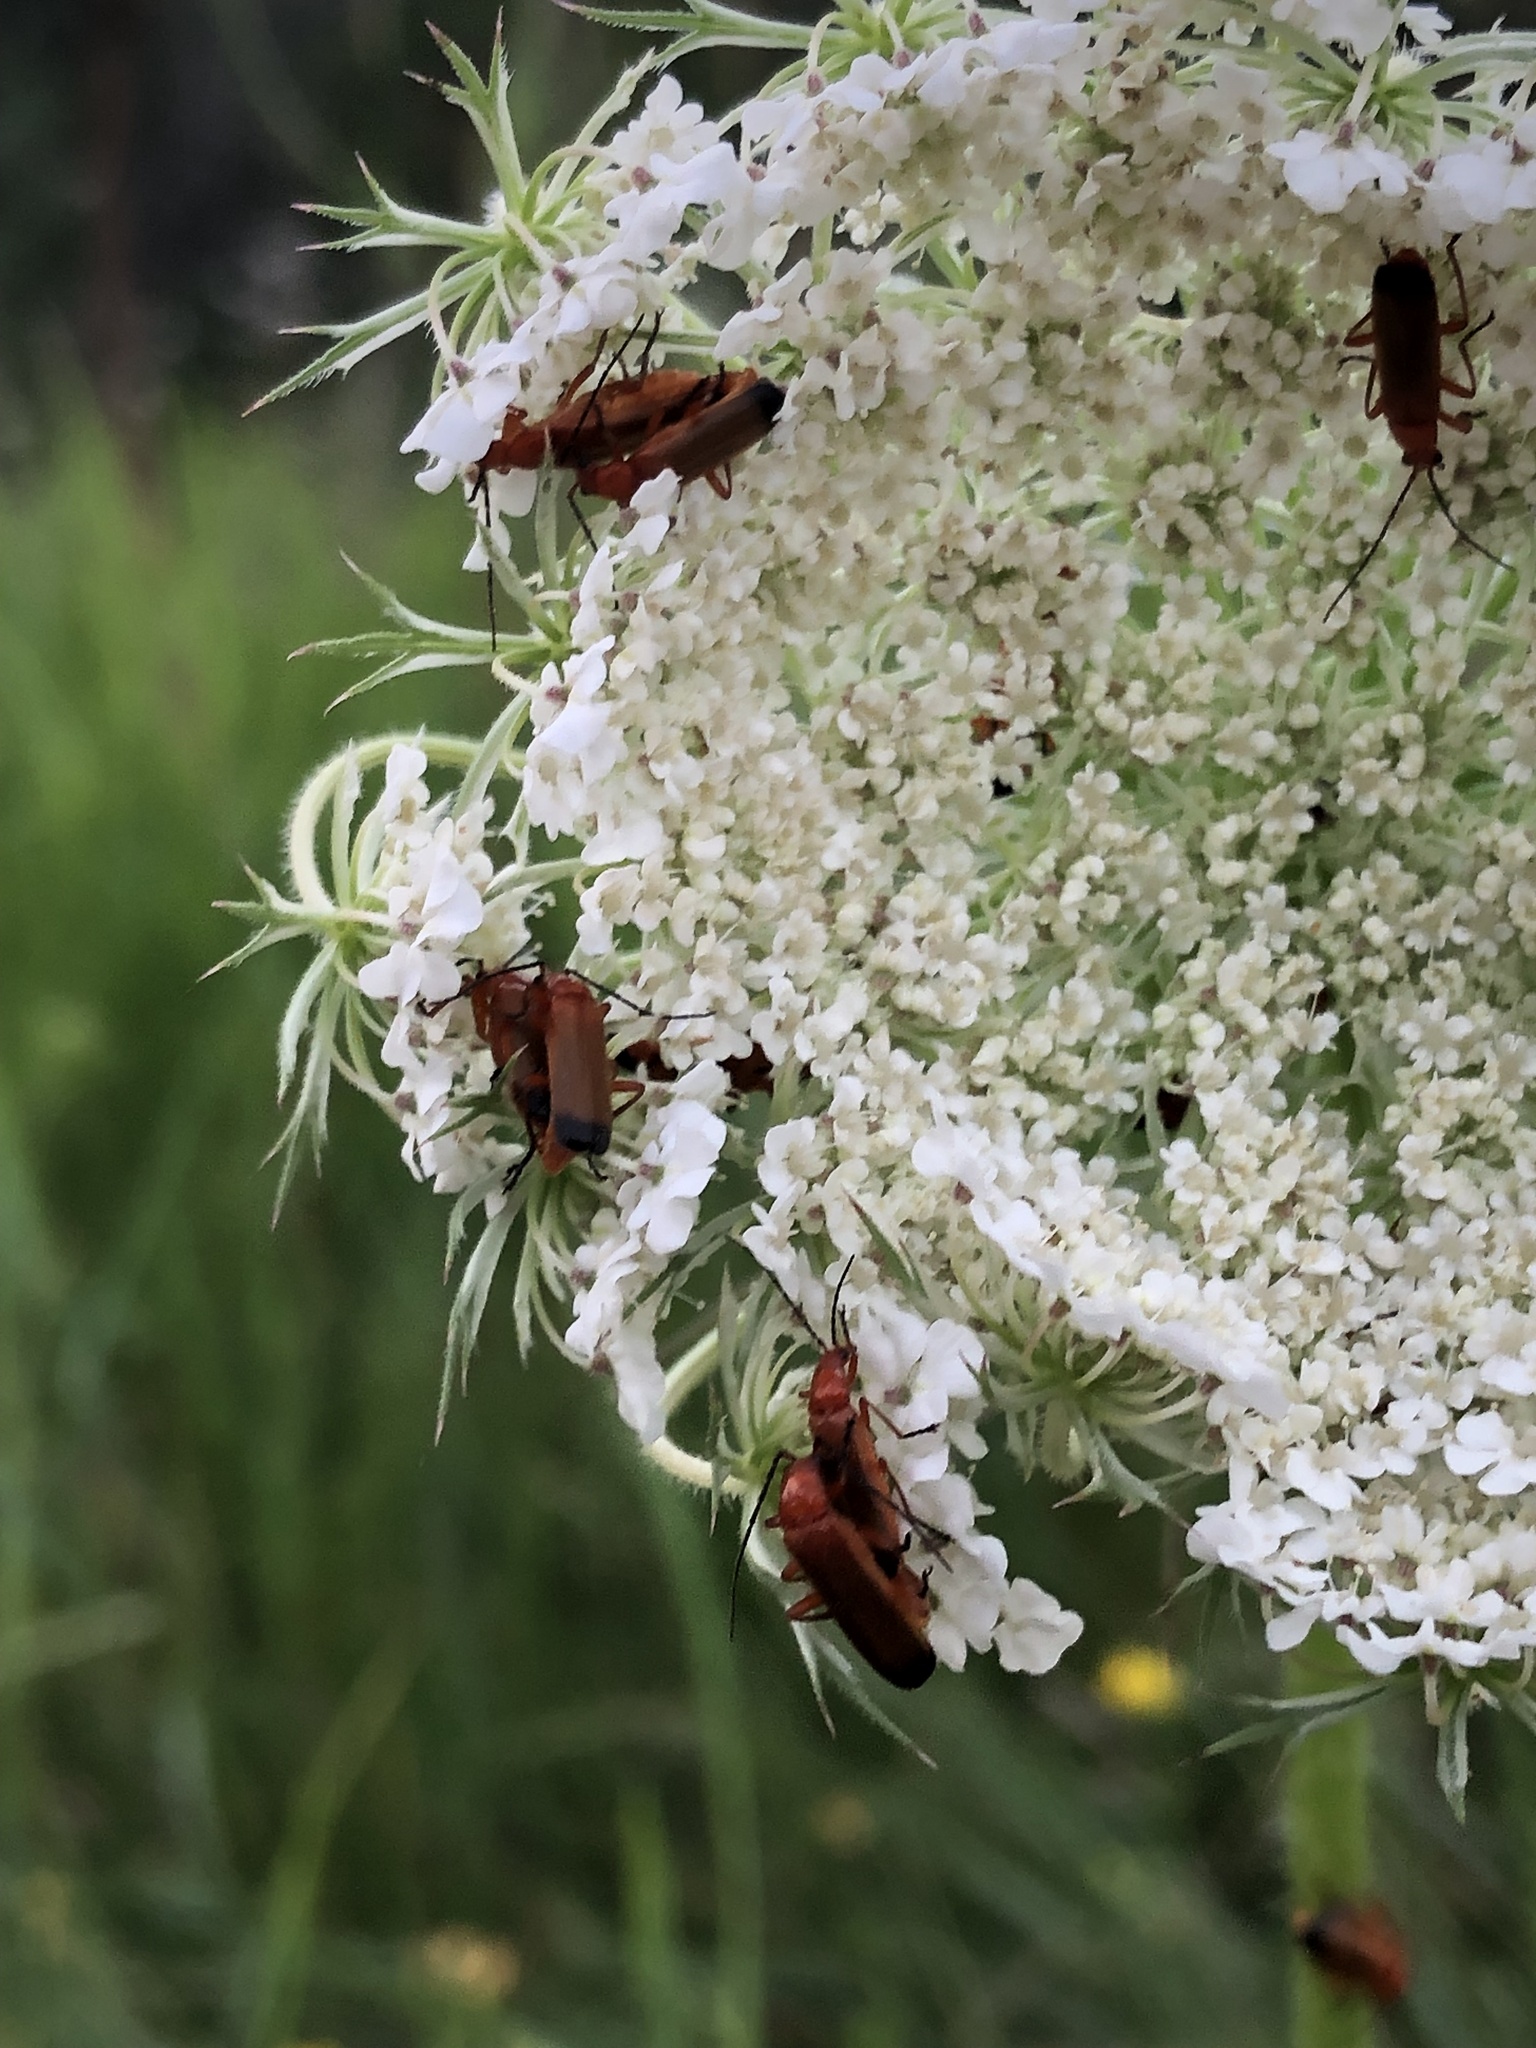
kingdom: Animalia
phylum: Arthropoda
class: Insecta
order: Coleoptera
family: Cantharidae
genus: Rhagonycha
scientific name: Rhagonycha fulva
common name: Common red soldier beetle
